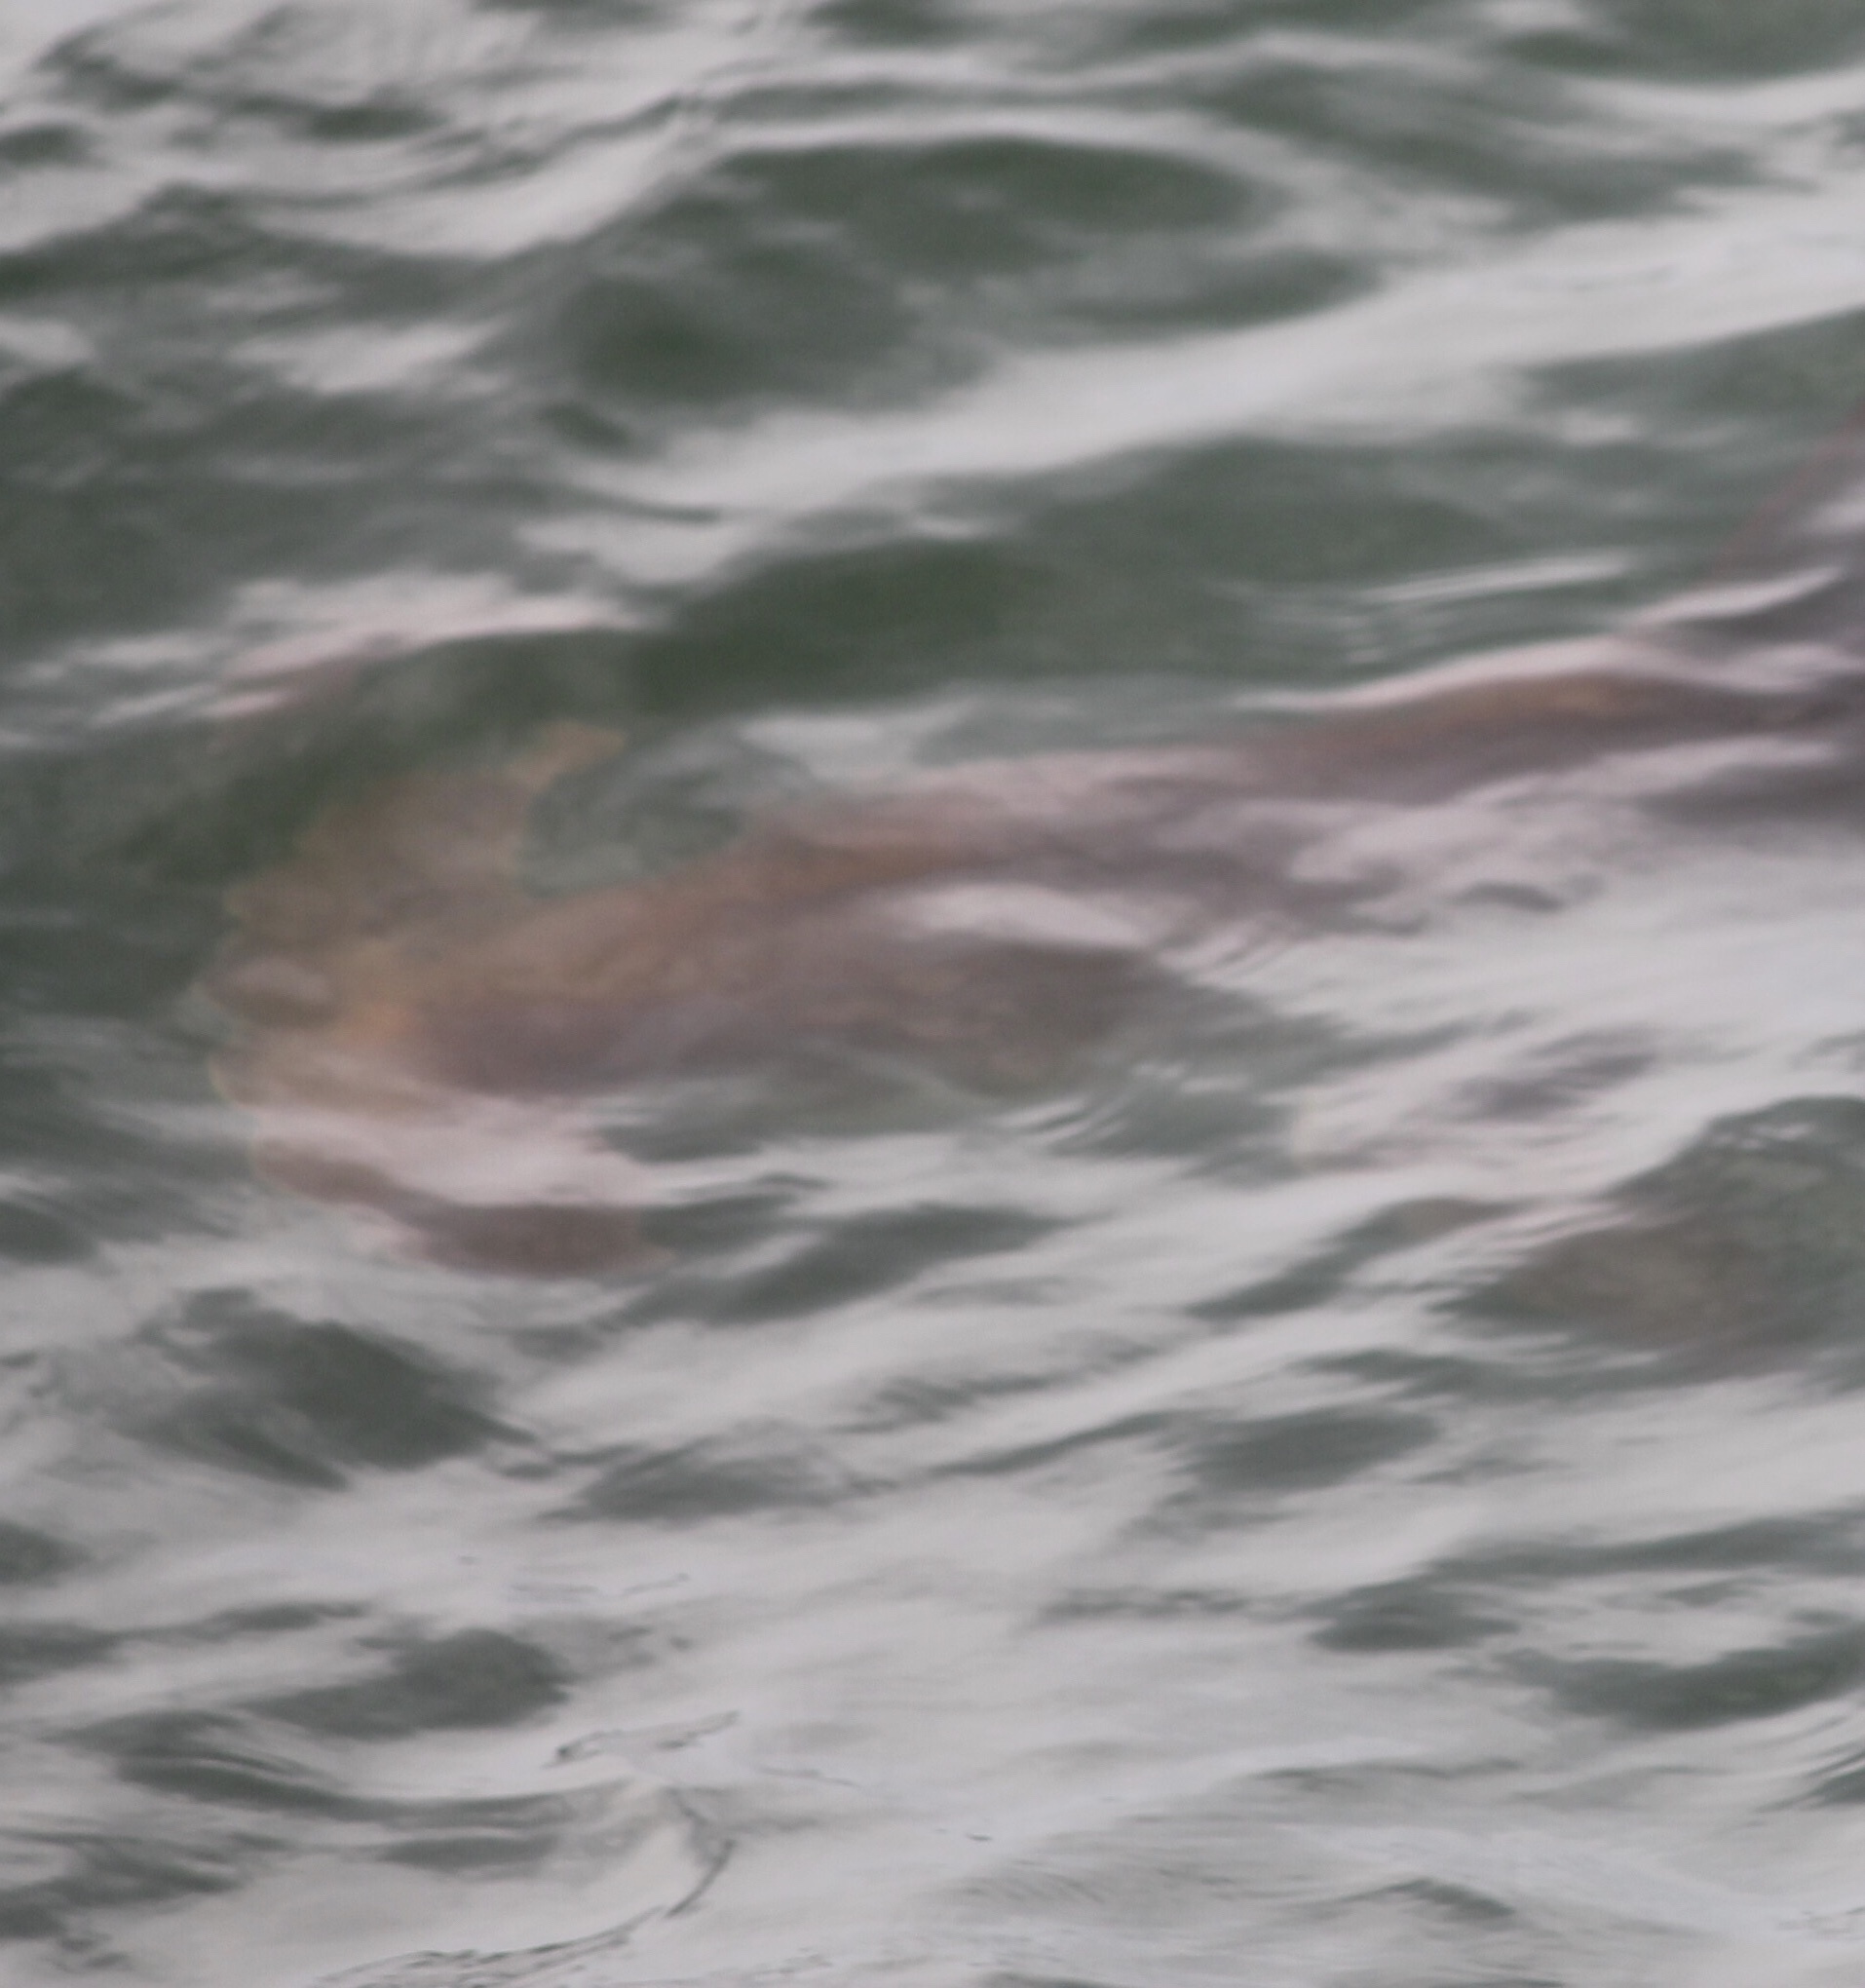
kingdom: Animalia
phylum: Chordata
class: Elasmobranchii
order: Carcharhiniformes
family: Sphyrnidae
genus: Sphyrna
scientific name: Sphyrna lewini
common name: Scalloped hammerhead
